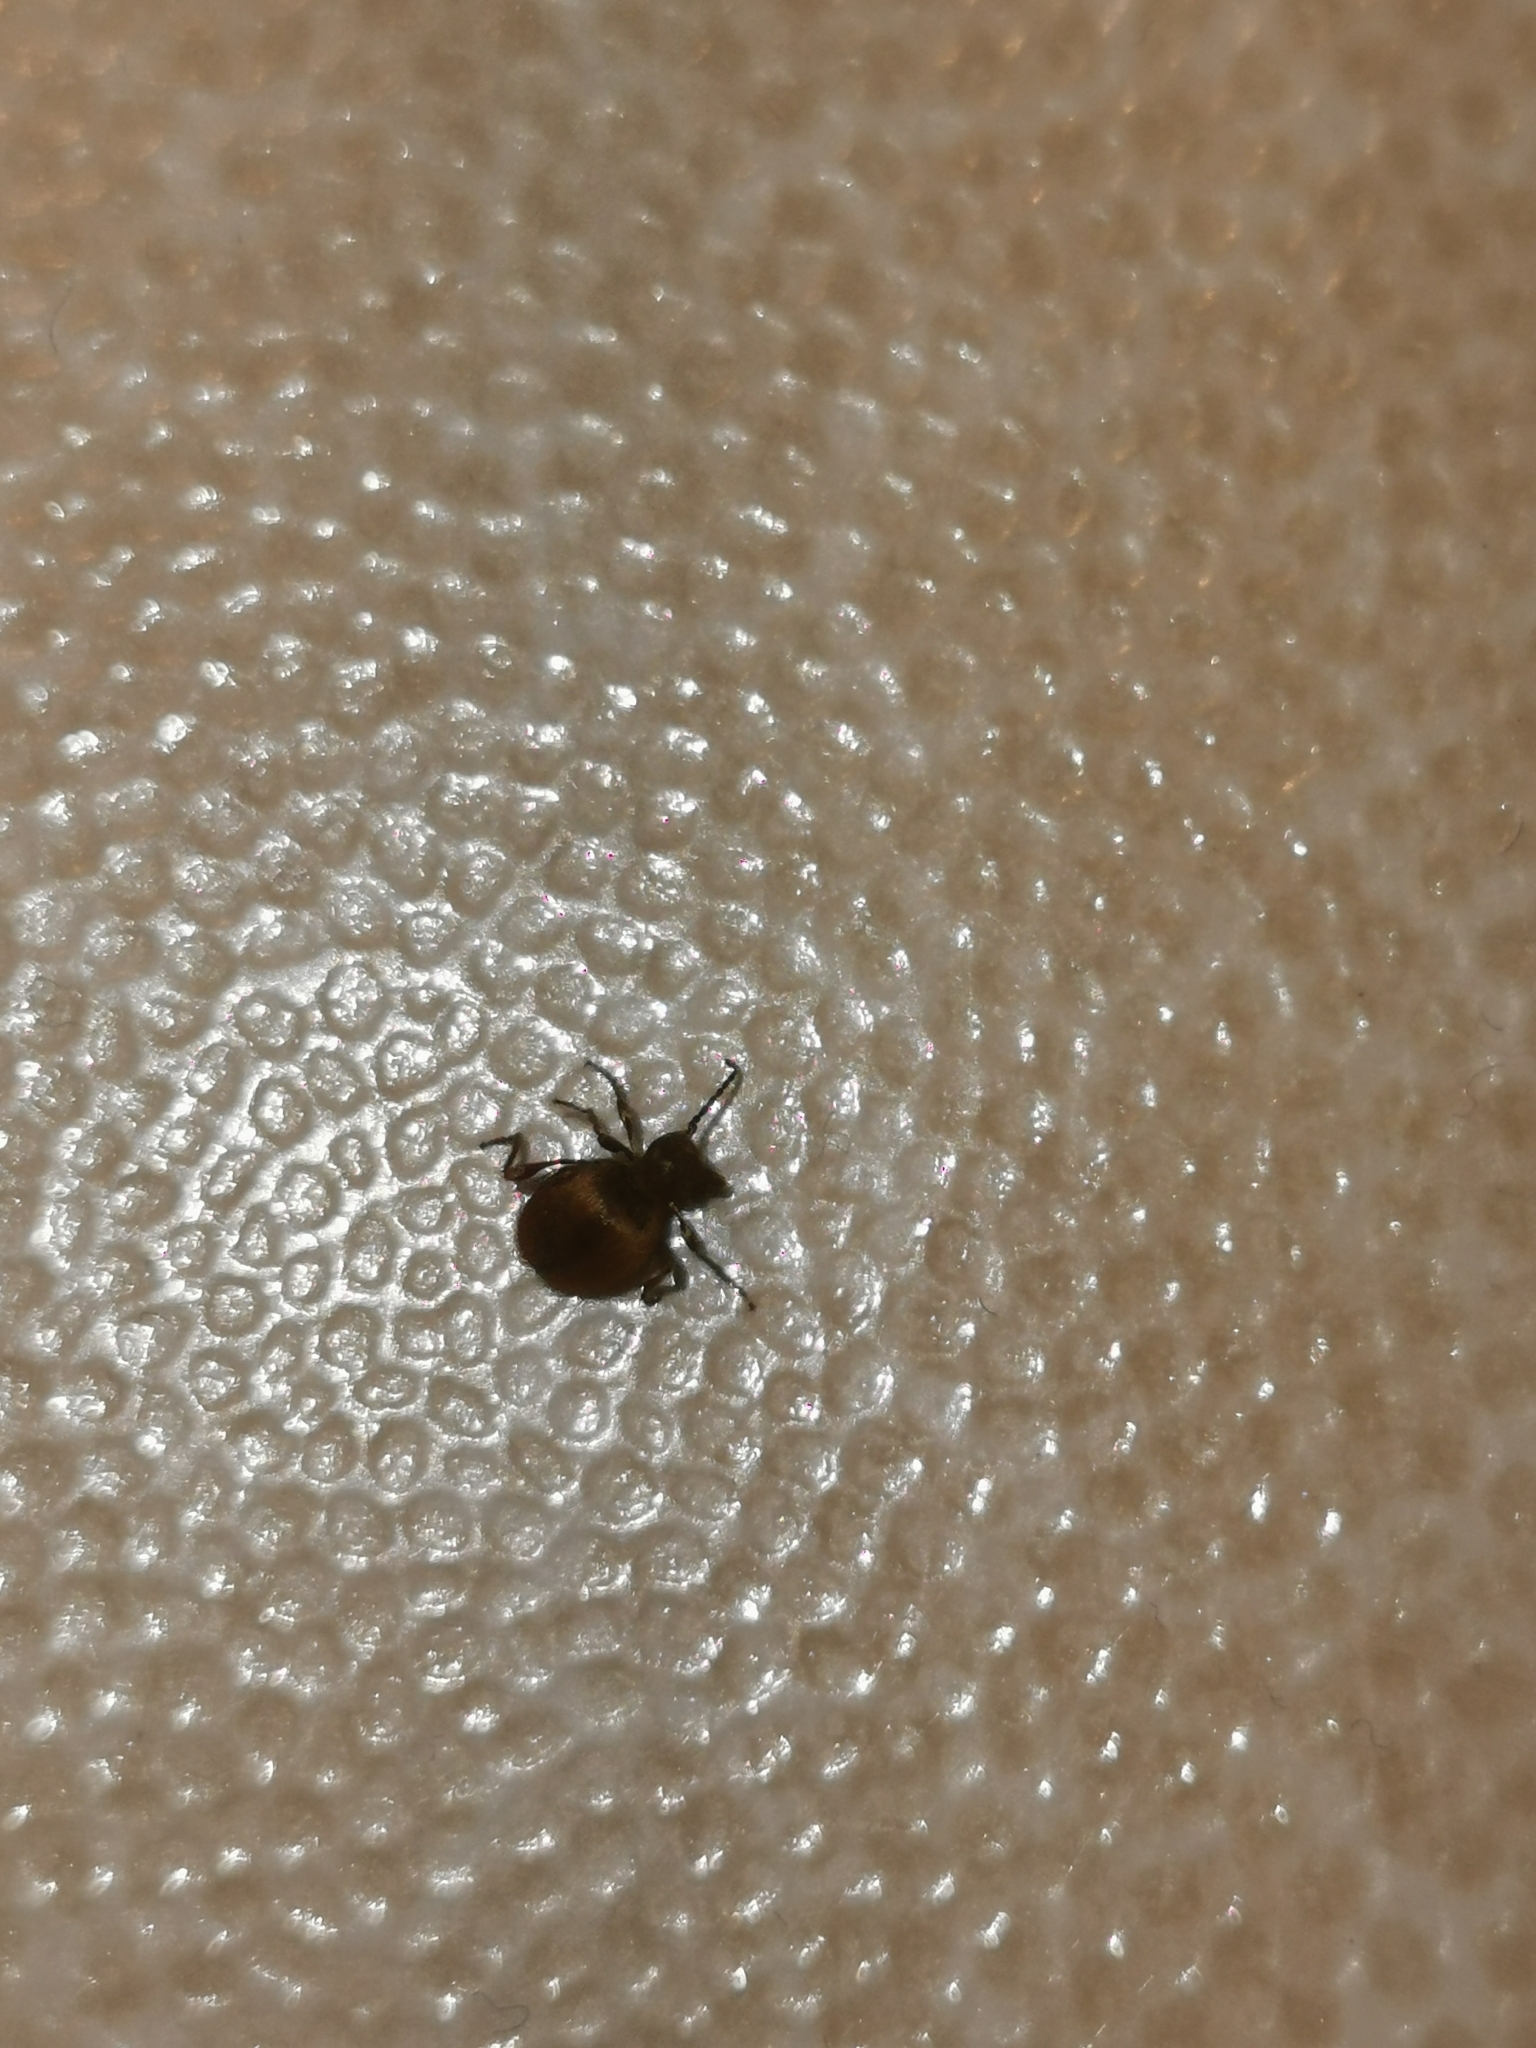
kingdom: Animalia
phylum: Arthropoda
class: Insecta
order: Coleoptera
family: Ptinidae
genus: Niptus
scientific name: Niptus hololeucus
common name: Golden spider beetle
